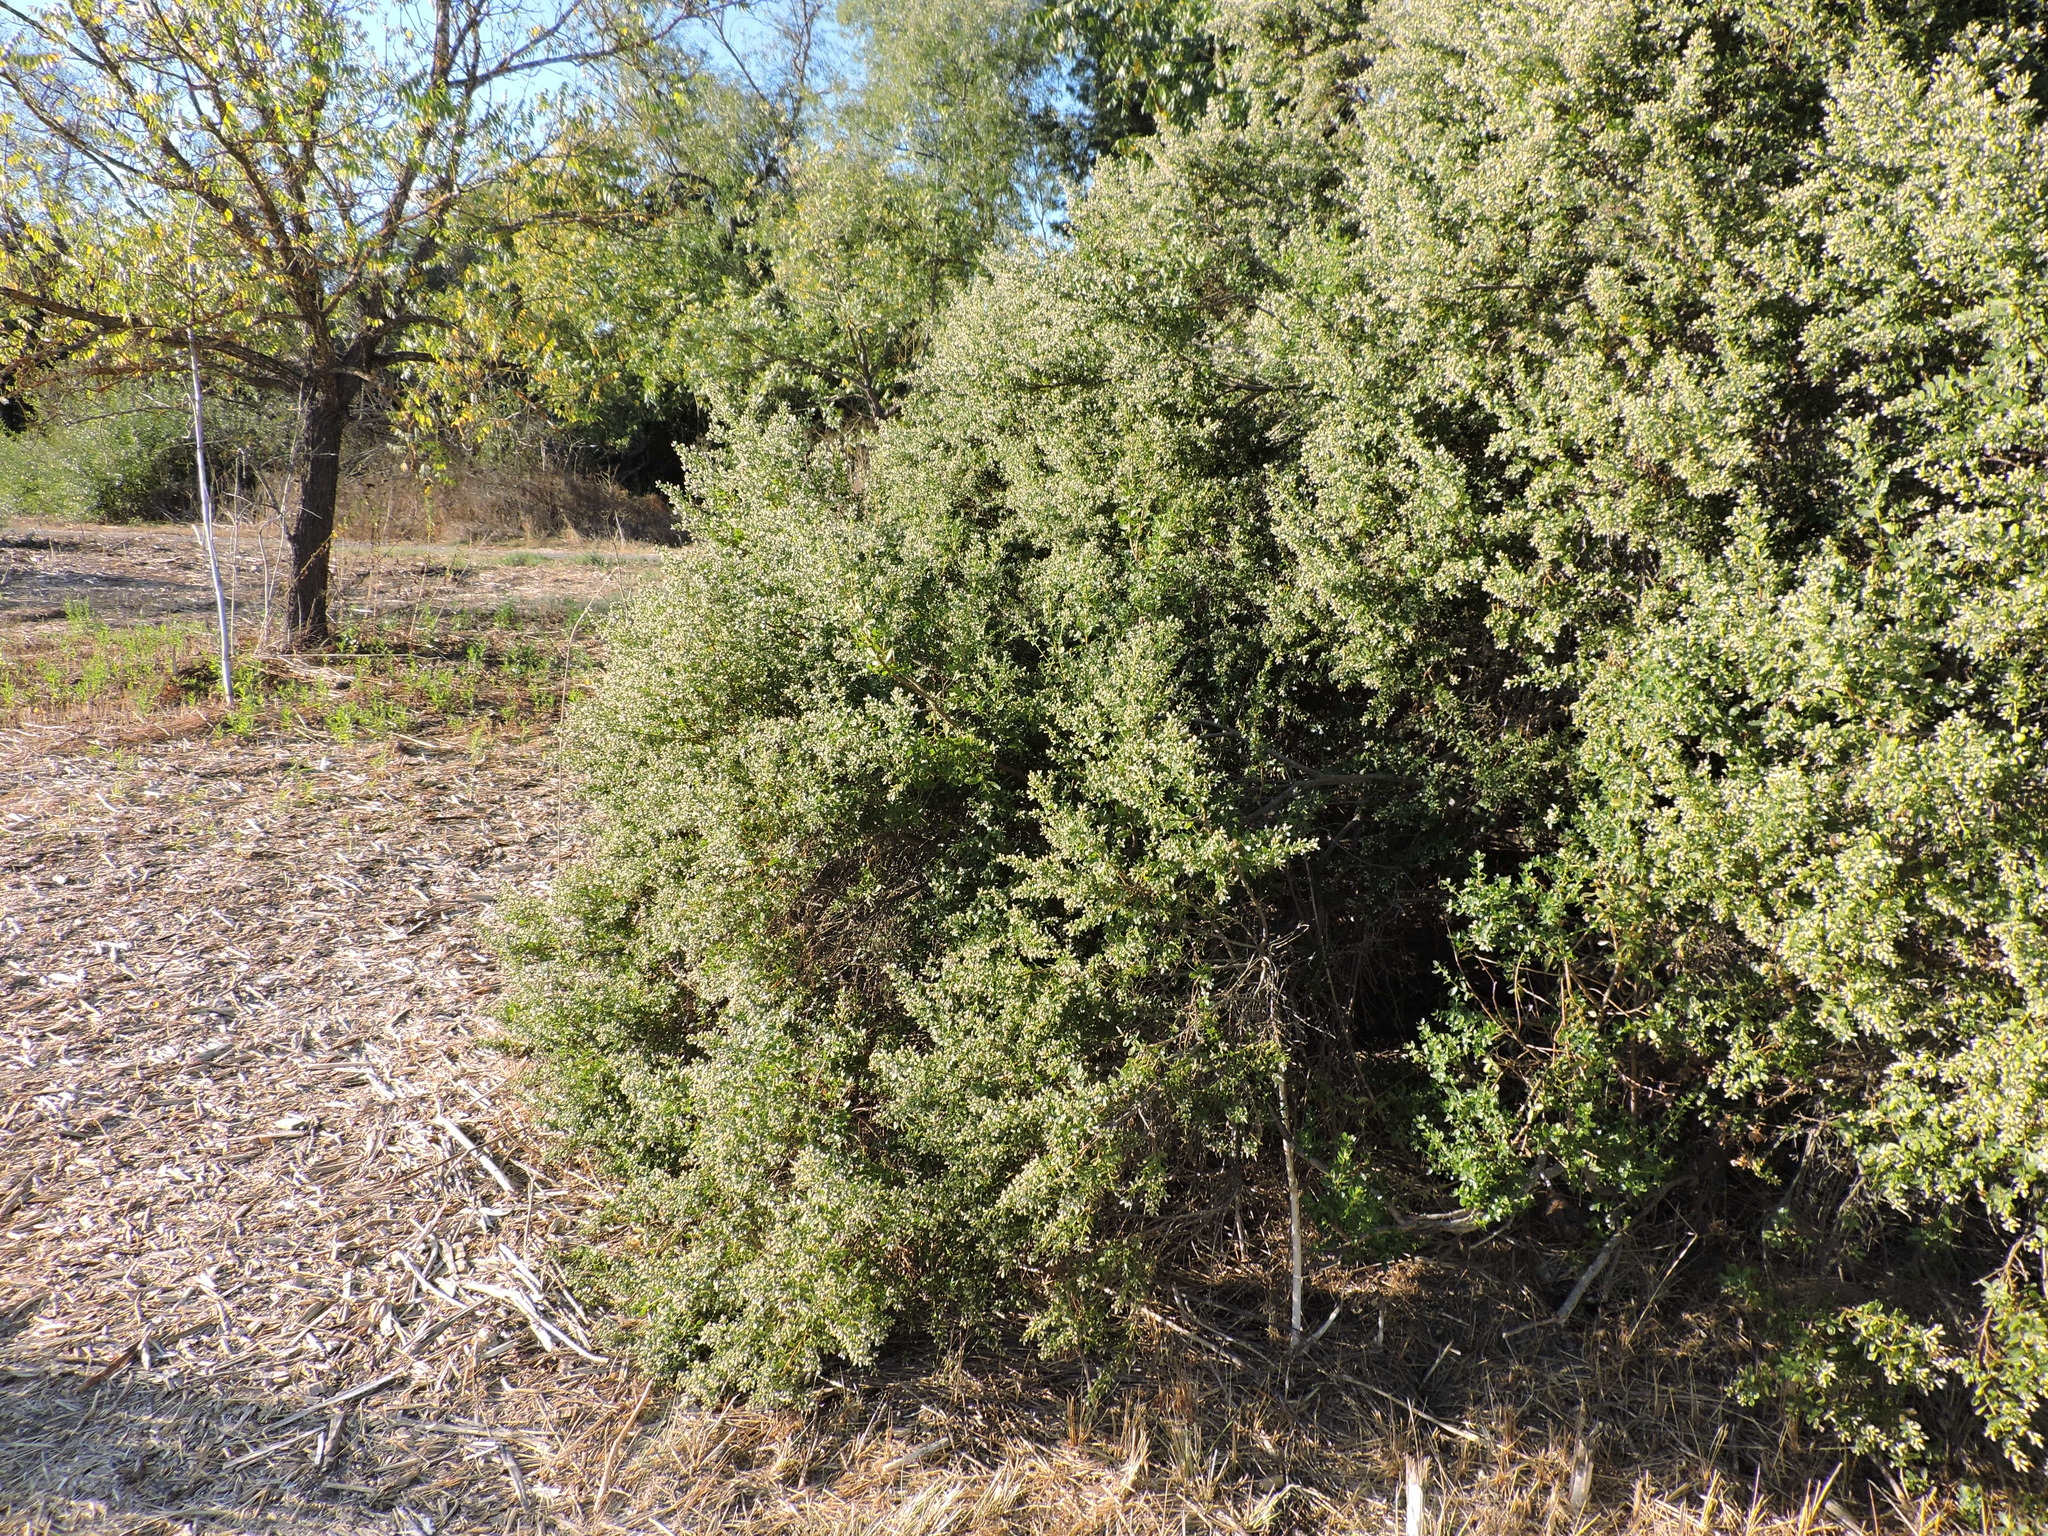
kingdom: Plantae
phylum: Tracheophyta
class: Magnoliopsida
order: Asterales
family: Asteraceae
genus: Baccharis
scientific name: Baccharis pilularis
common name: Coyotebrush
